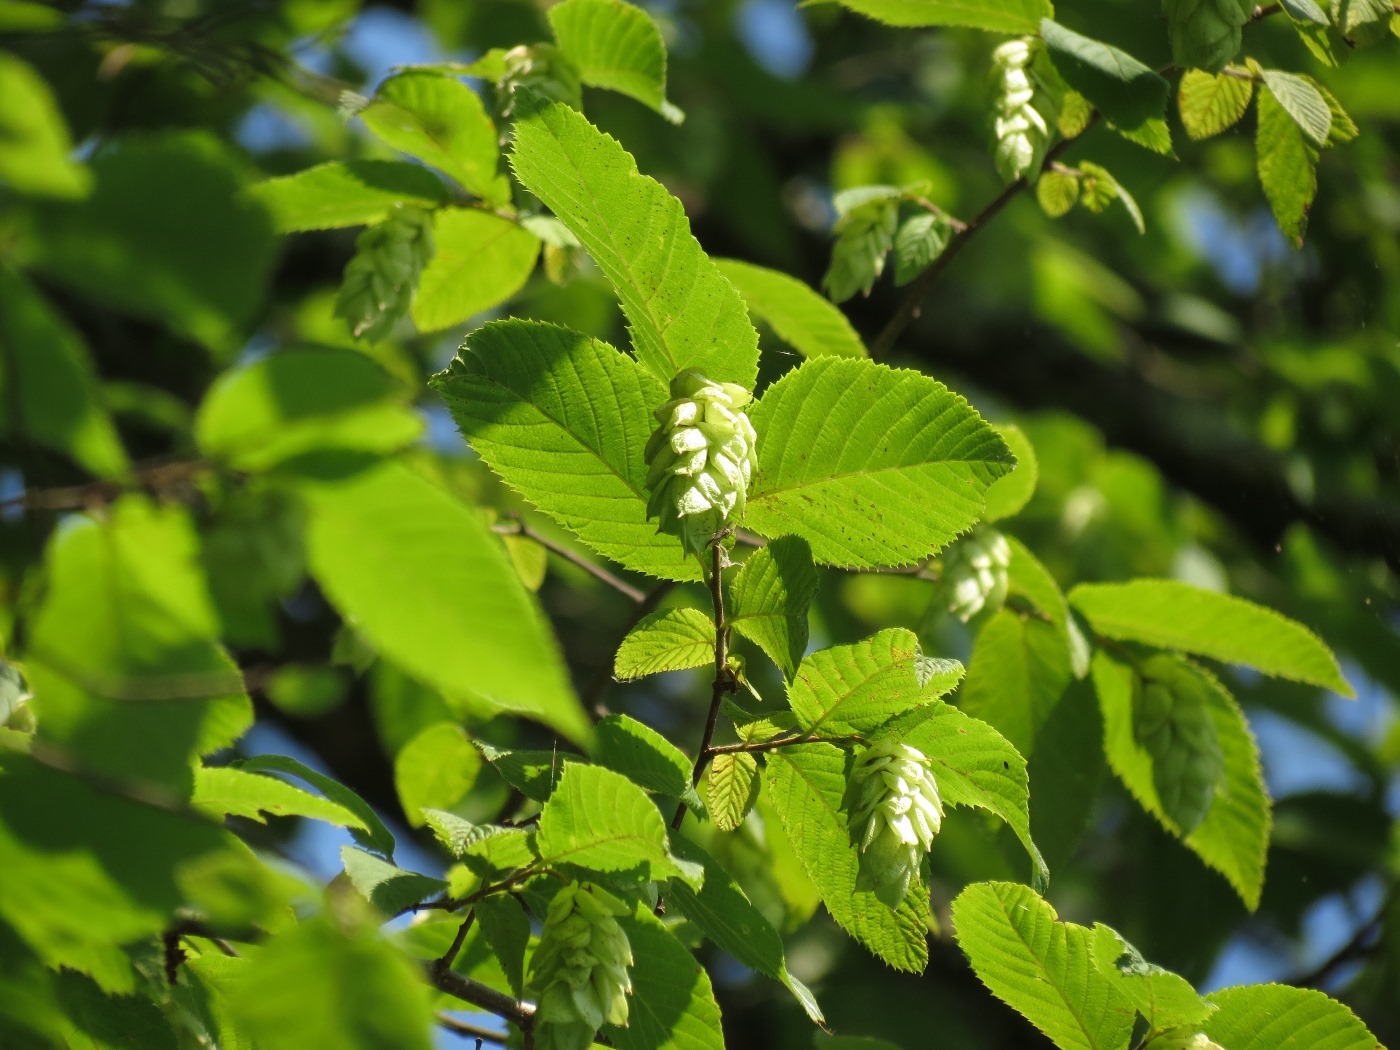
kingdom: Plantae
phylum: Tracheophyta
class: Magnoliopsida
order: Fagales
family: Betulaceae
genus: Ostrya
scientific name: Ostrya virginiana
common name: Ironwood
